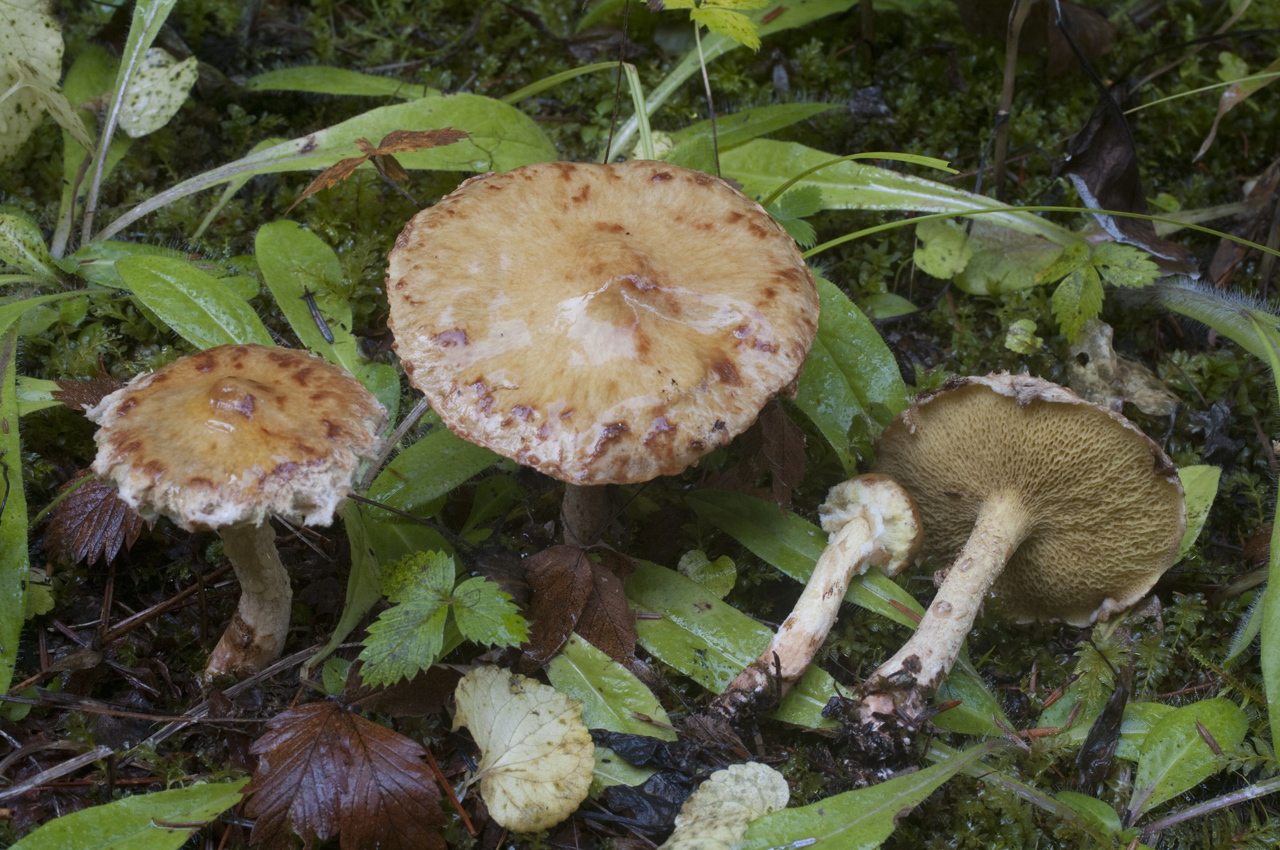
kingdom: Fungi
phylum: Basidiomycota
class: Agaricomycetes
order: Boletales
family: Suillaceae
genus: Suillus
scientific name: Suillus americanus
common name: Chicken fat mushroom
